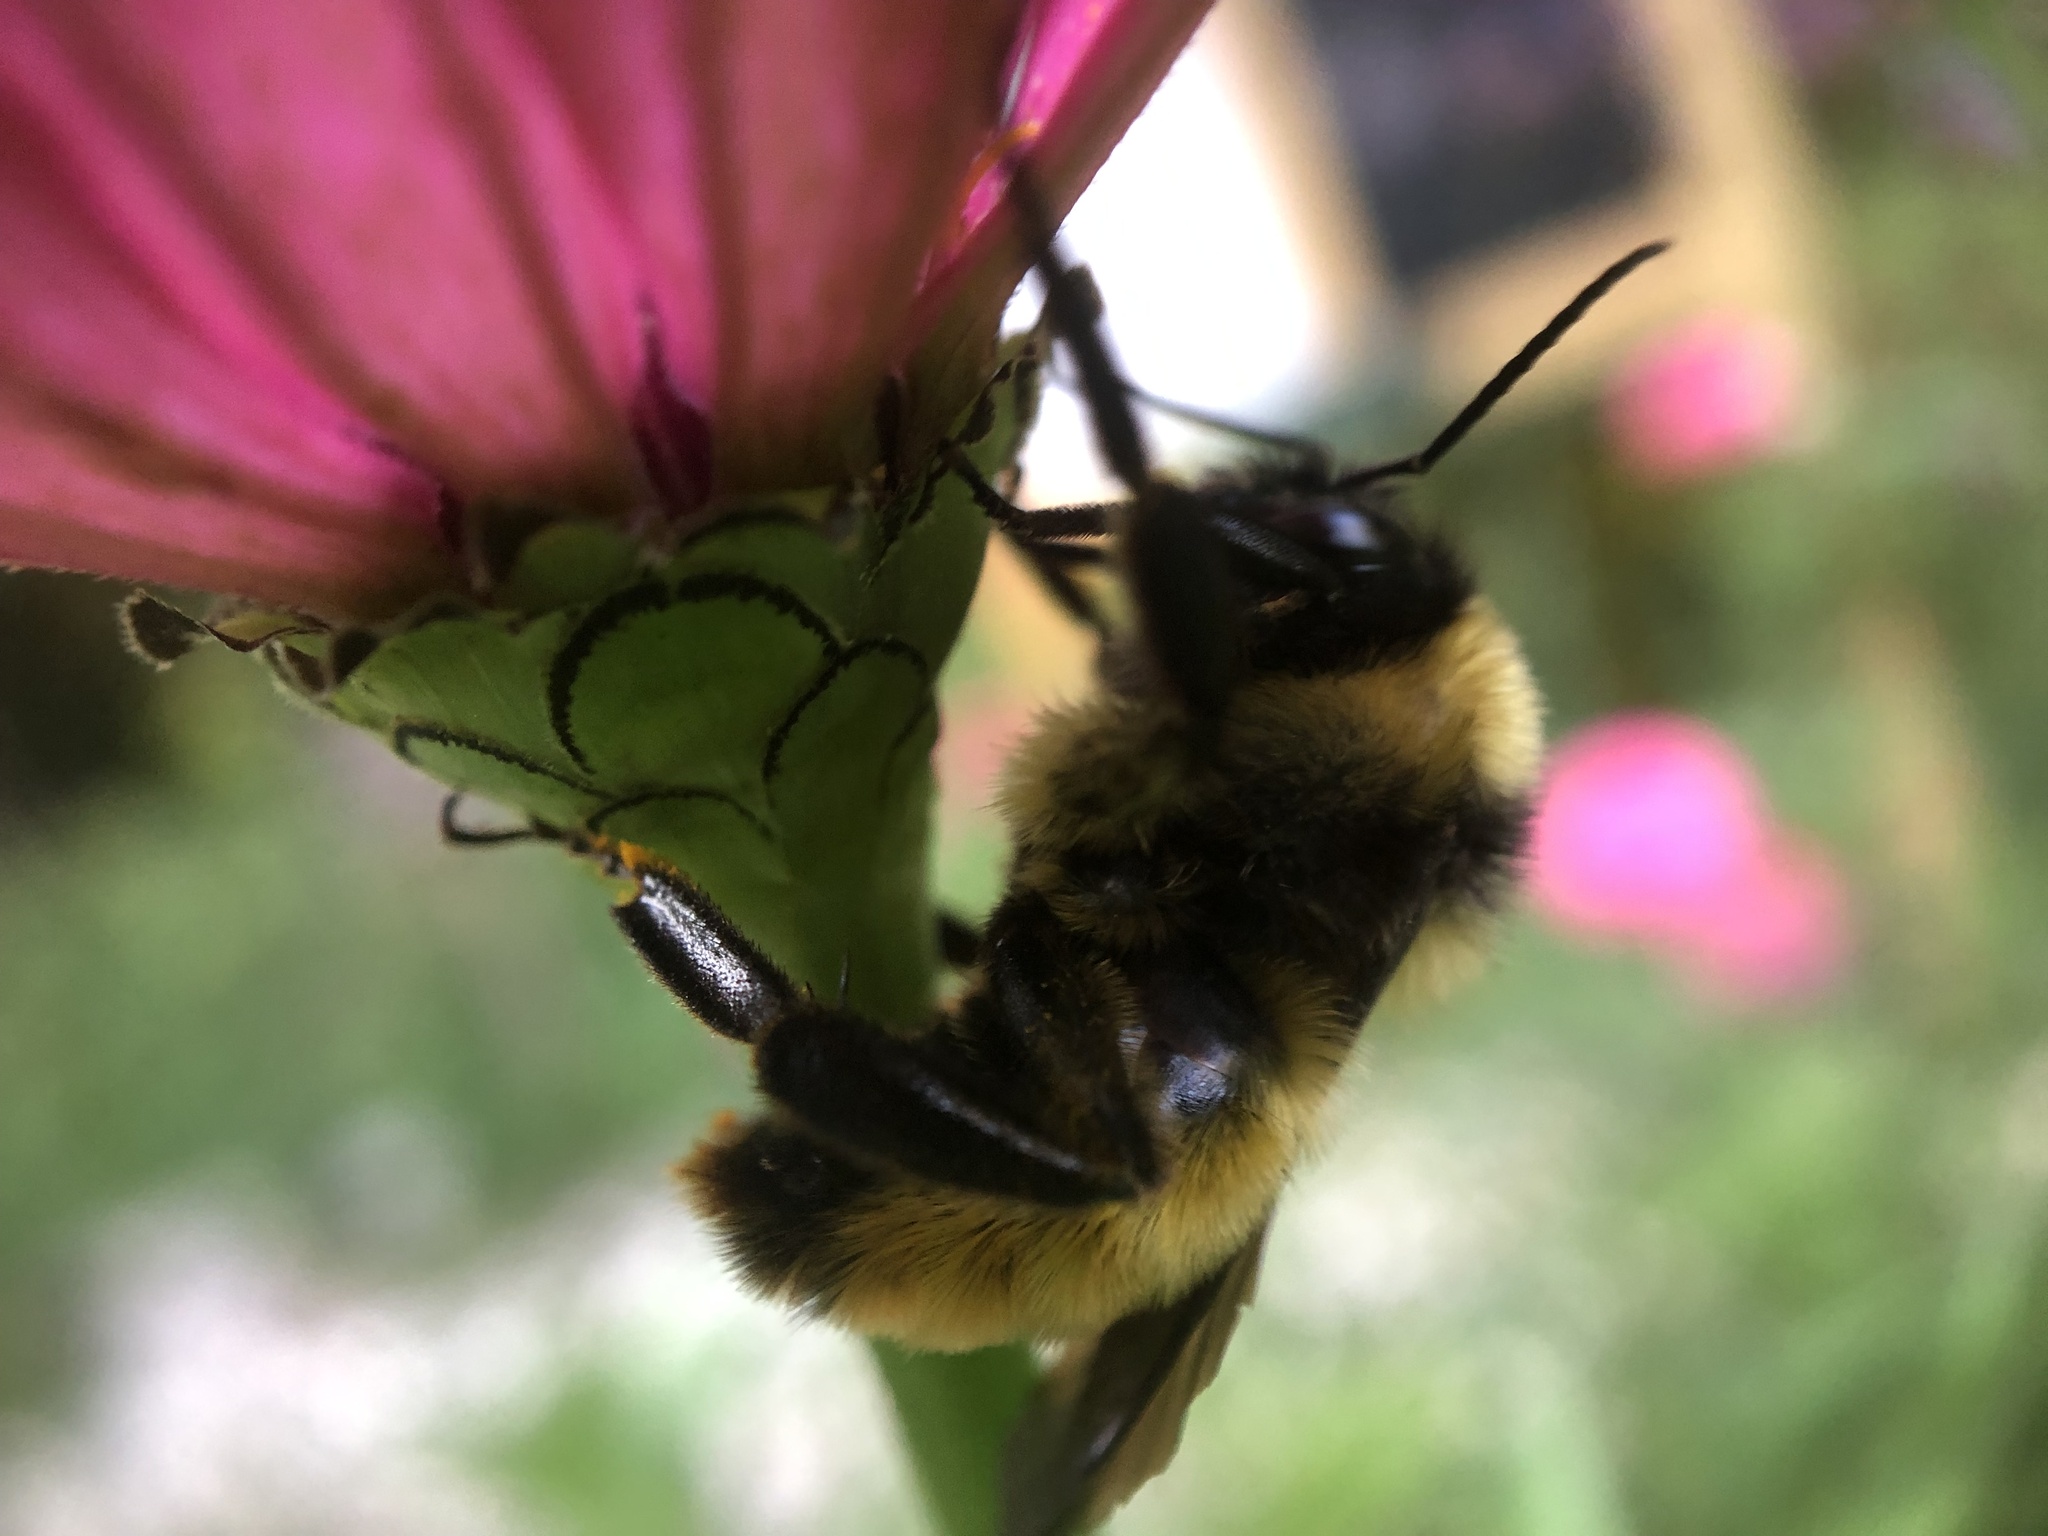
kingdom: Animalia
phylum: Arthropoda
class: Insecta
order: Hymenoptera
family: Apidae
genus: Bombus
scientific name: Bombus pensylvanicus
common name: Bumble bee
